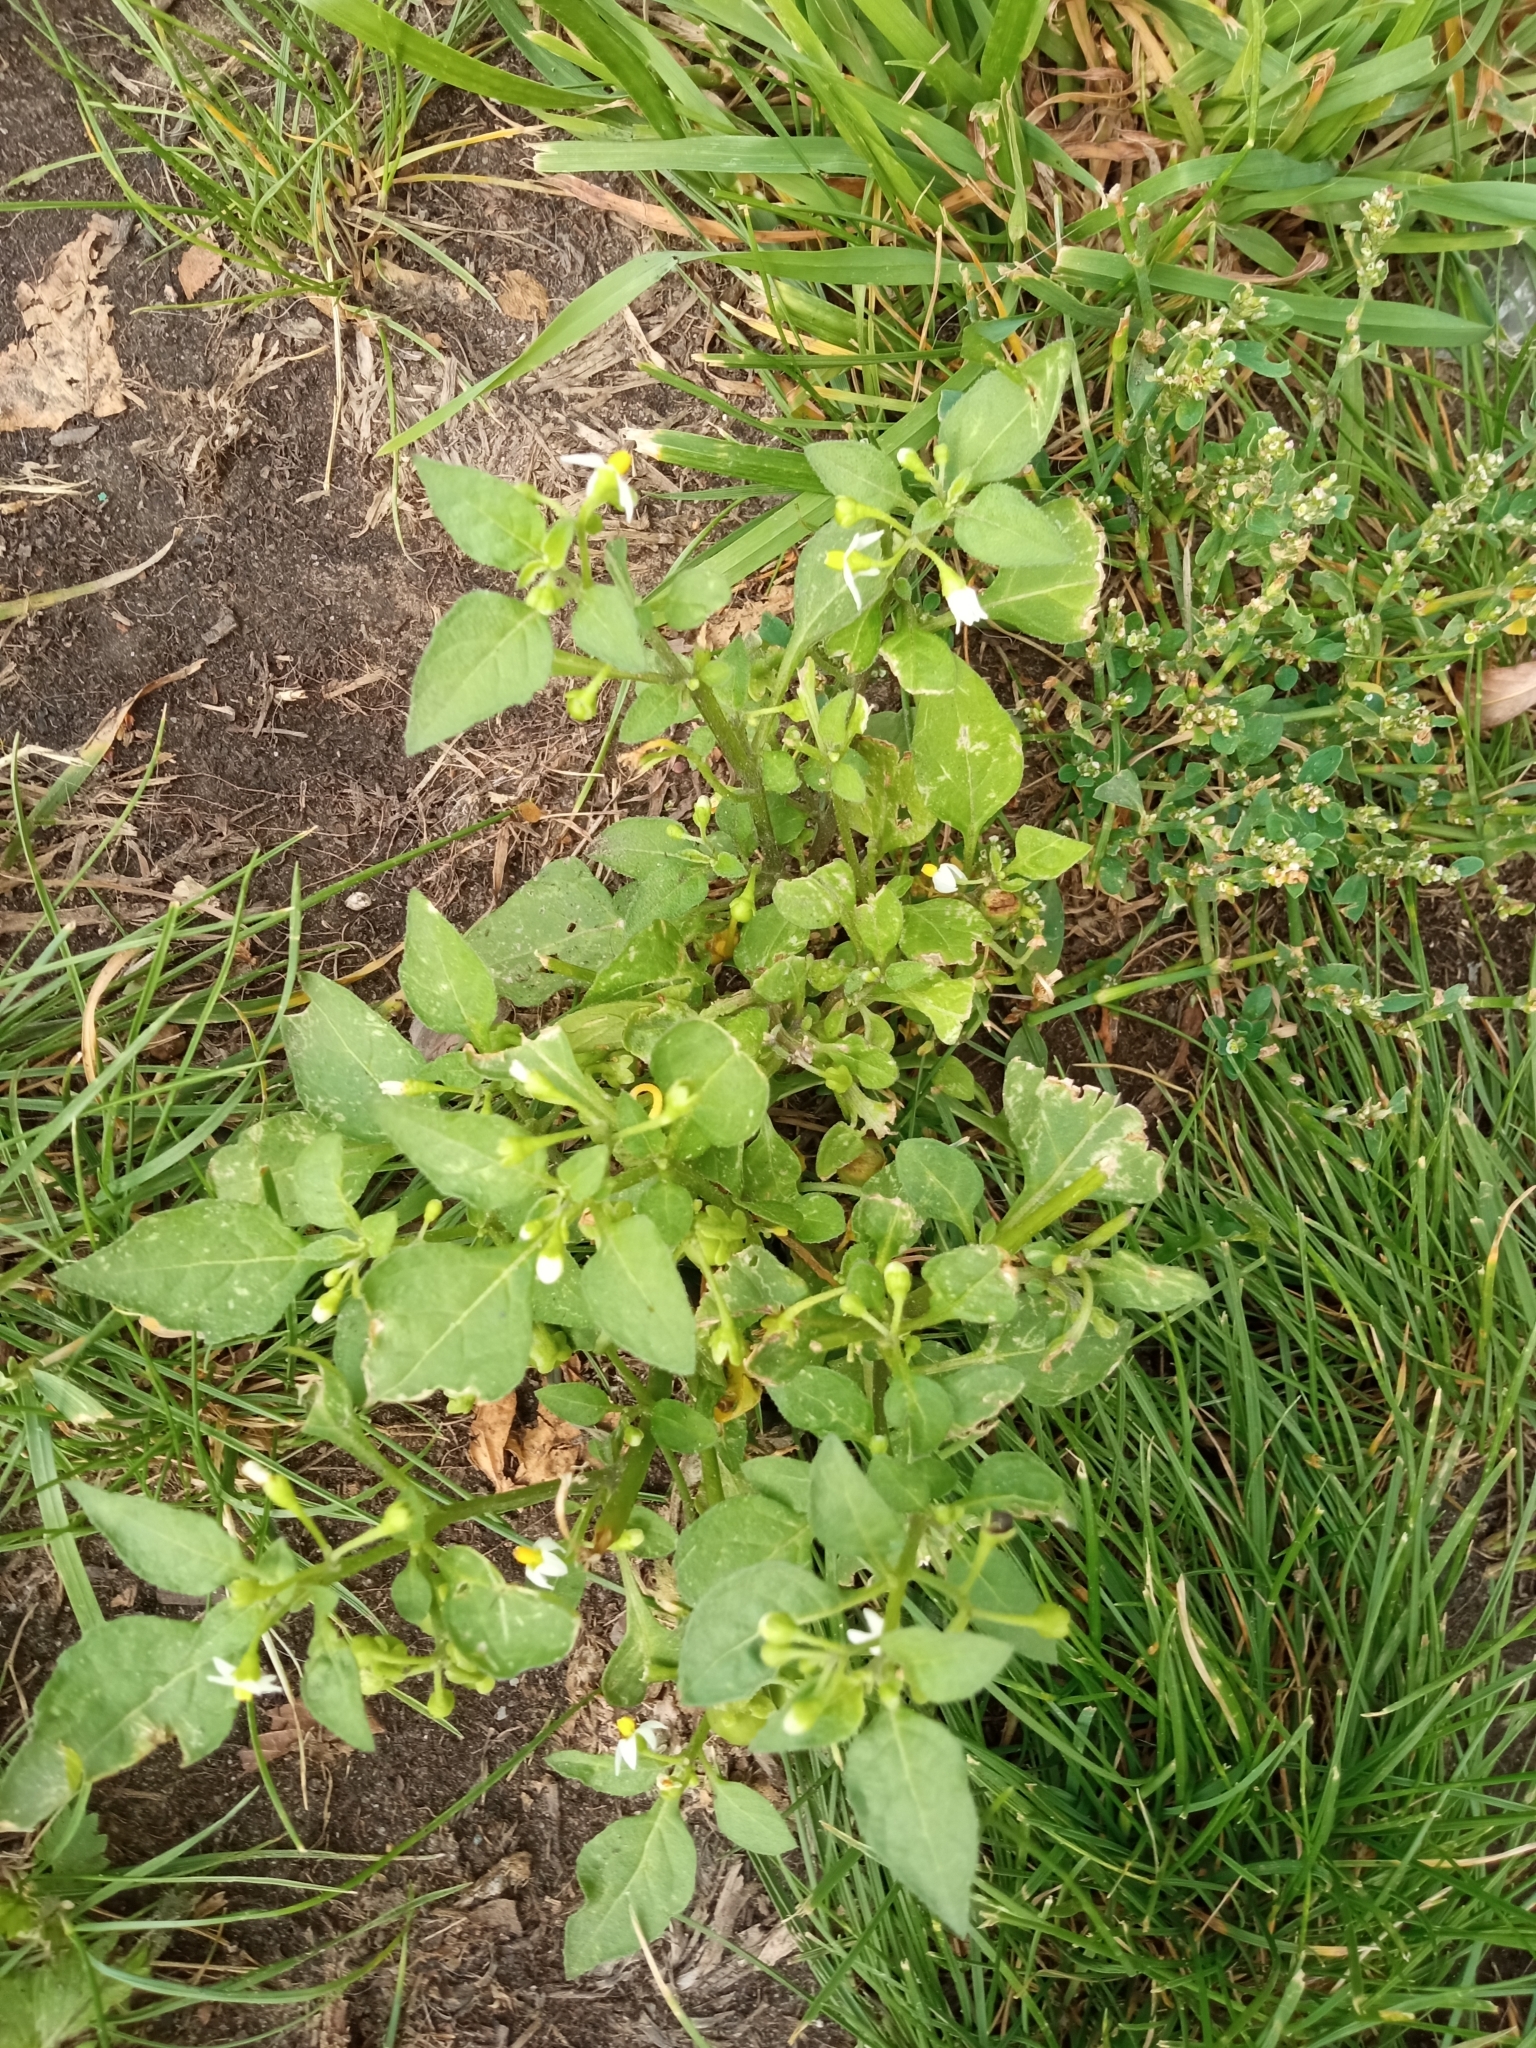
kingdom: Plantae
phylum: Tracheophyta
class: Magnoliopsida
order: Solanales
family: Solanaceae
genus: Solanum
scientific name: Solanum nigrum
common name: Black nightshade
